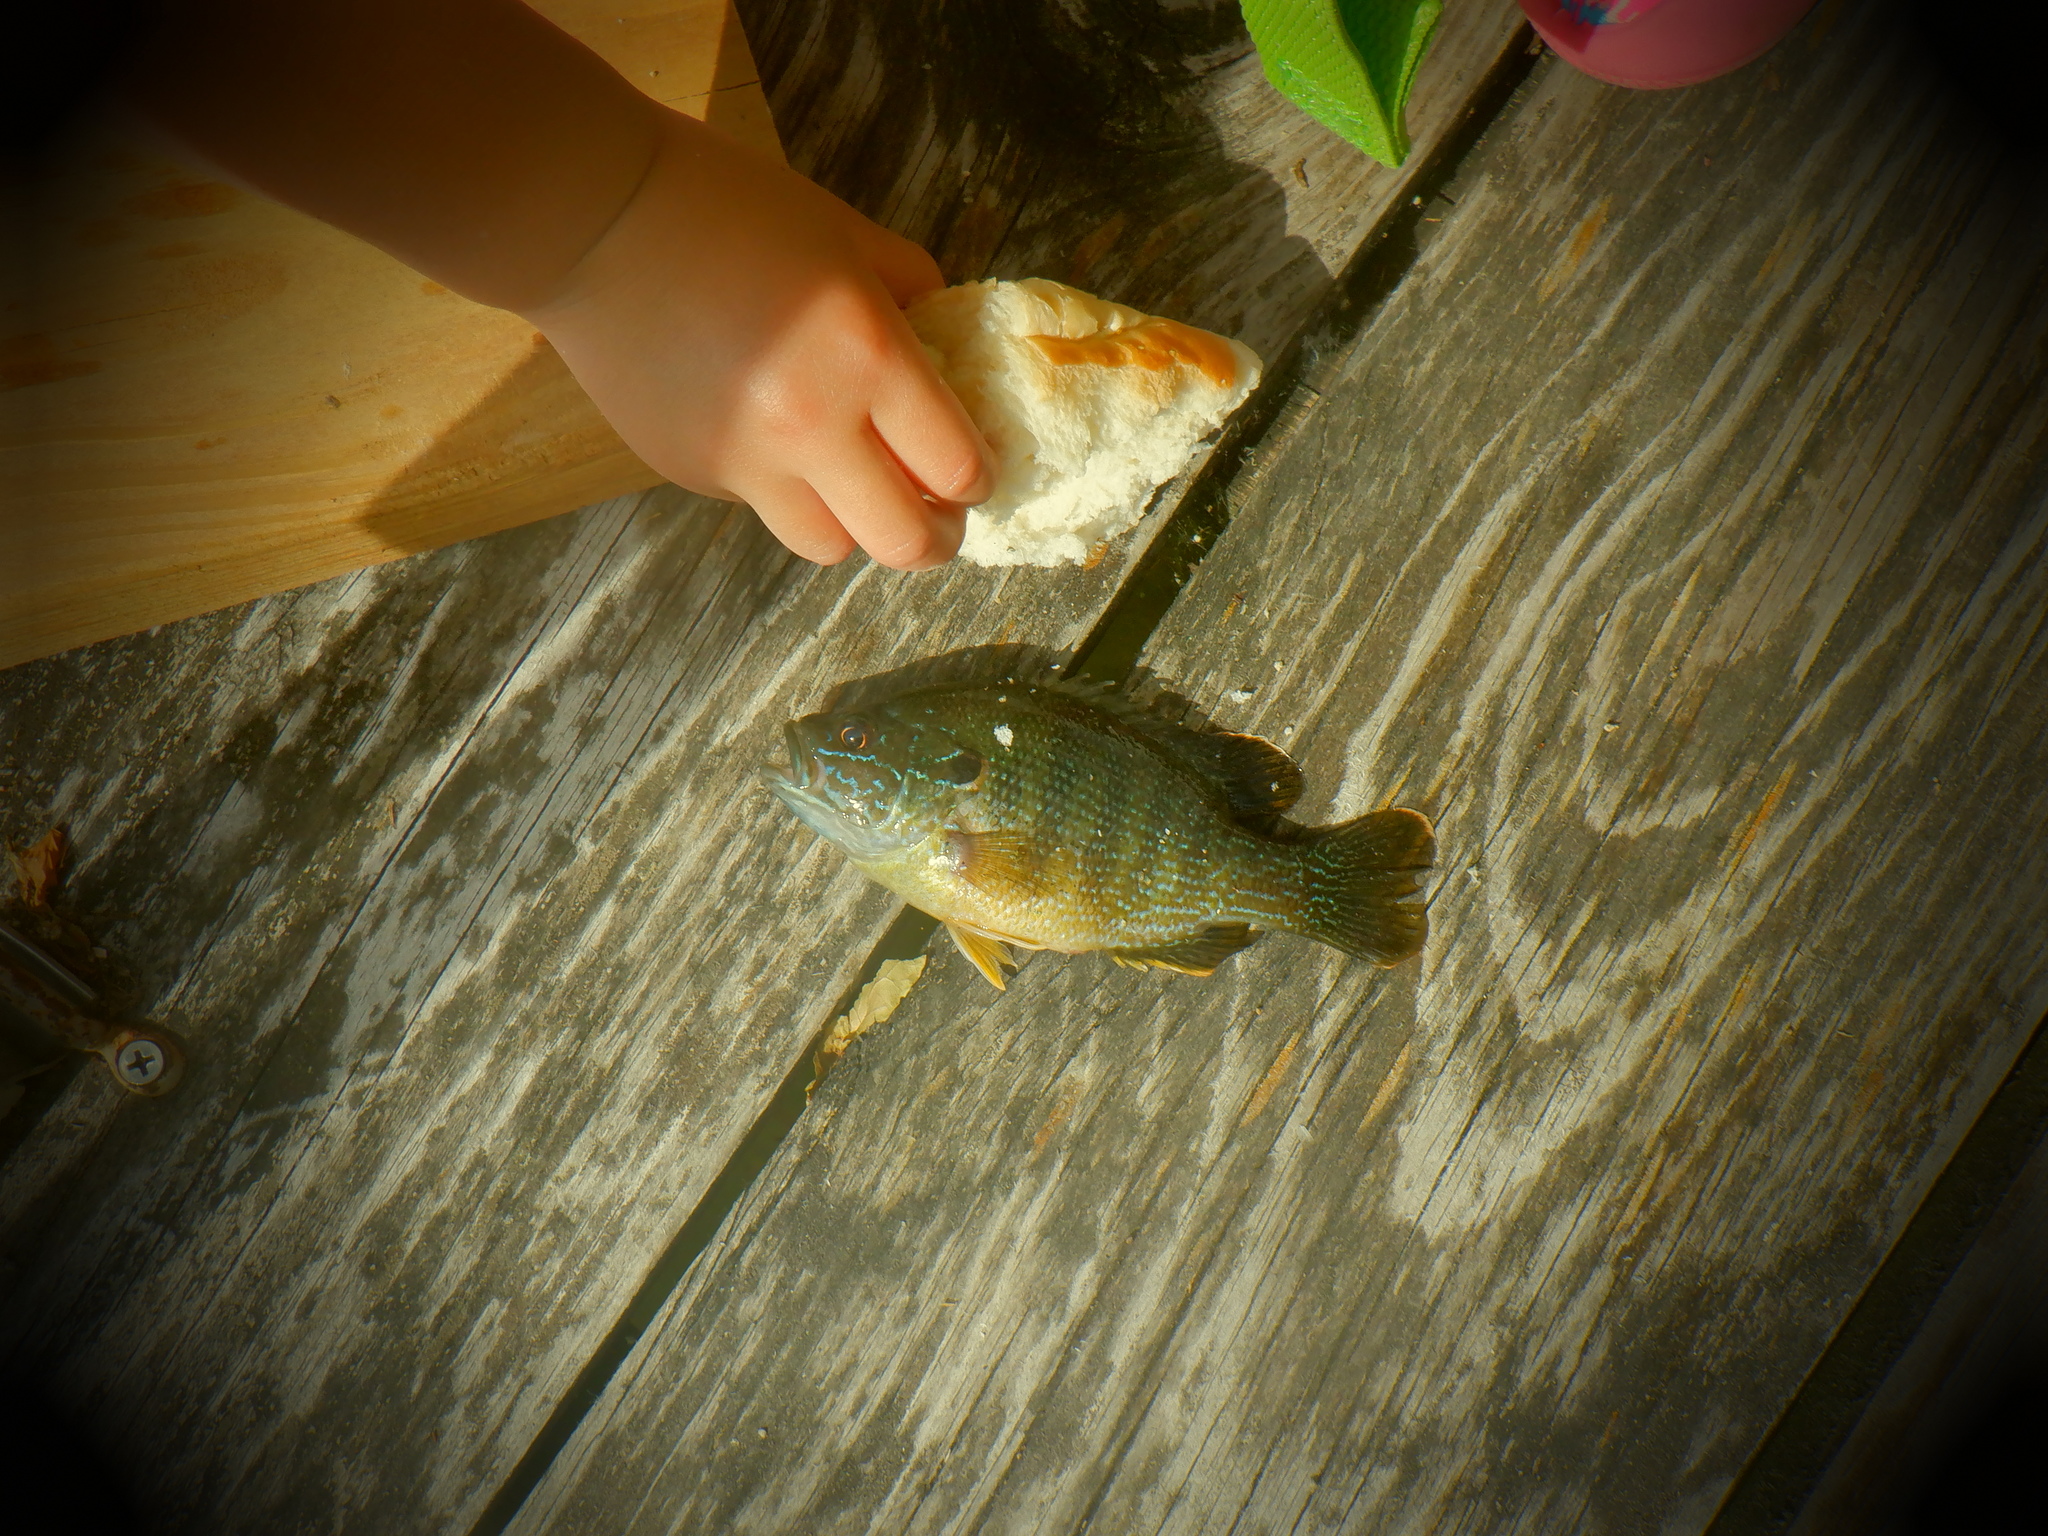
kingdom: Animalia
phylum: Chordata
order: Perciformes
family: Centrarchidae
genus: Lepomis
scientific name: Lepomis cyanellus
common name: Green sunfish
